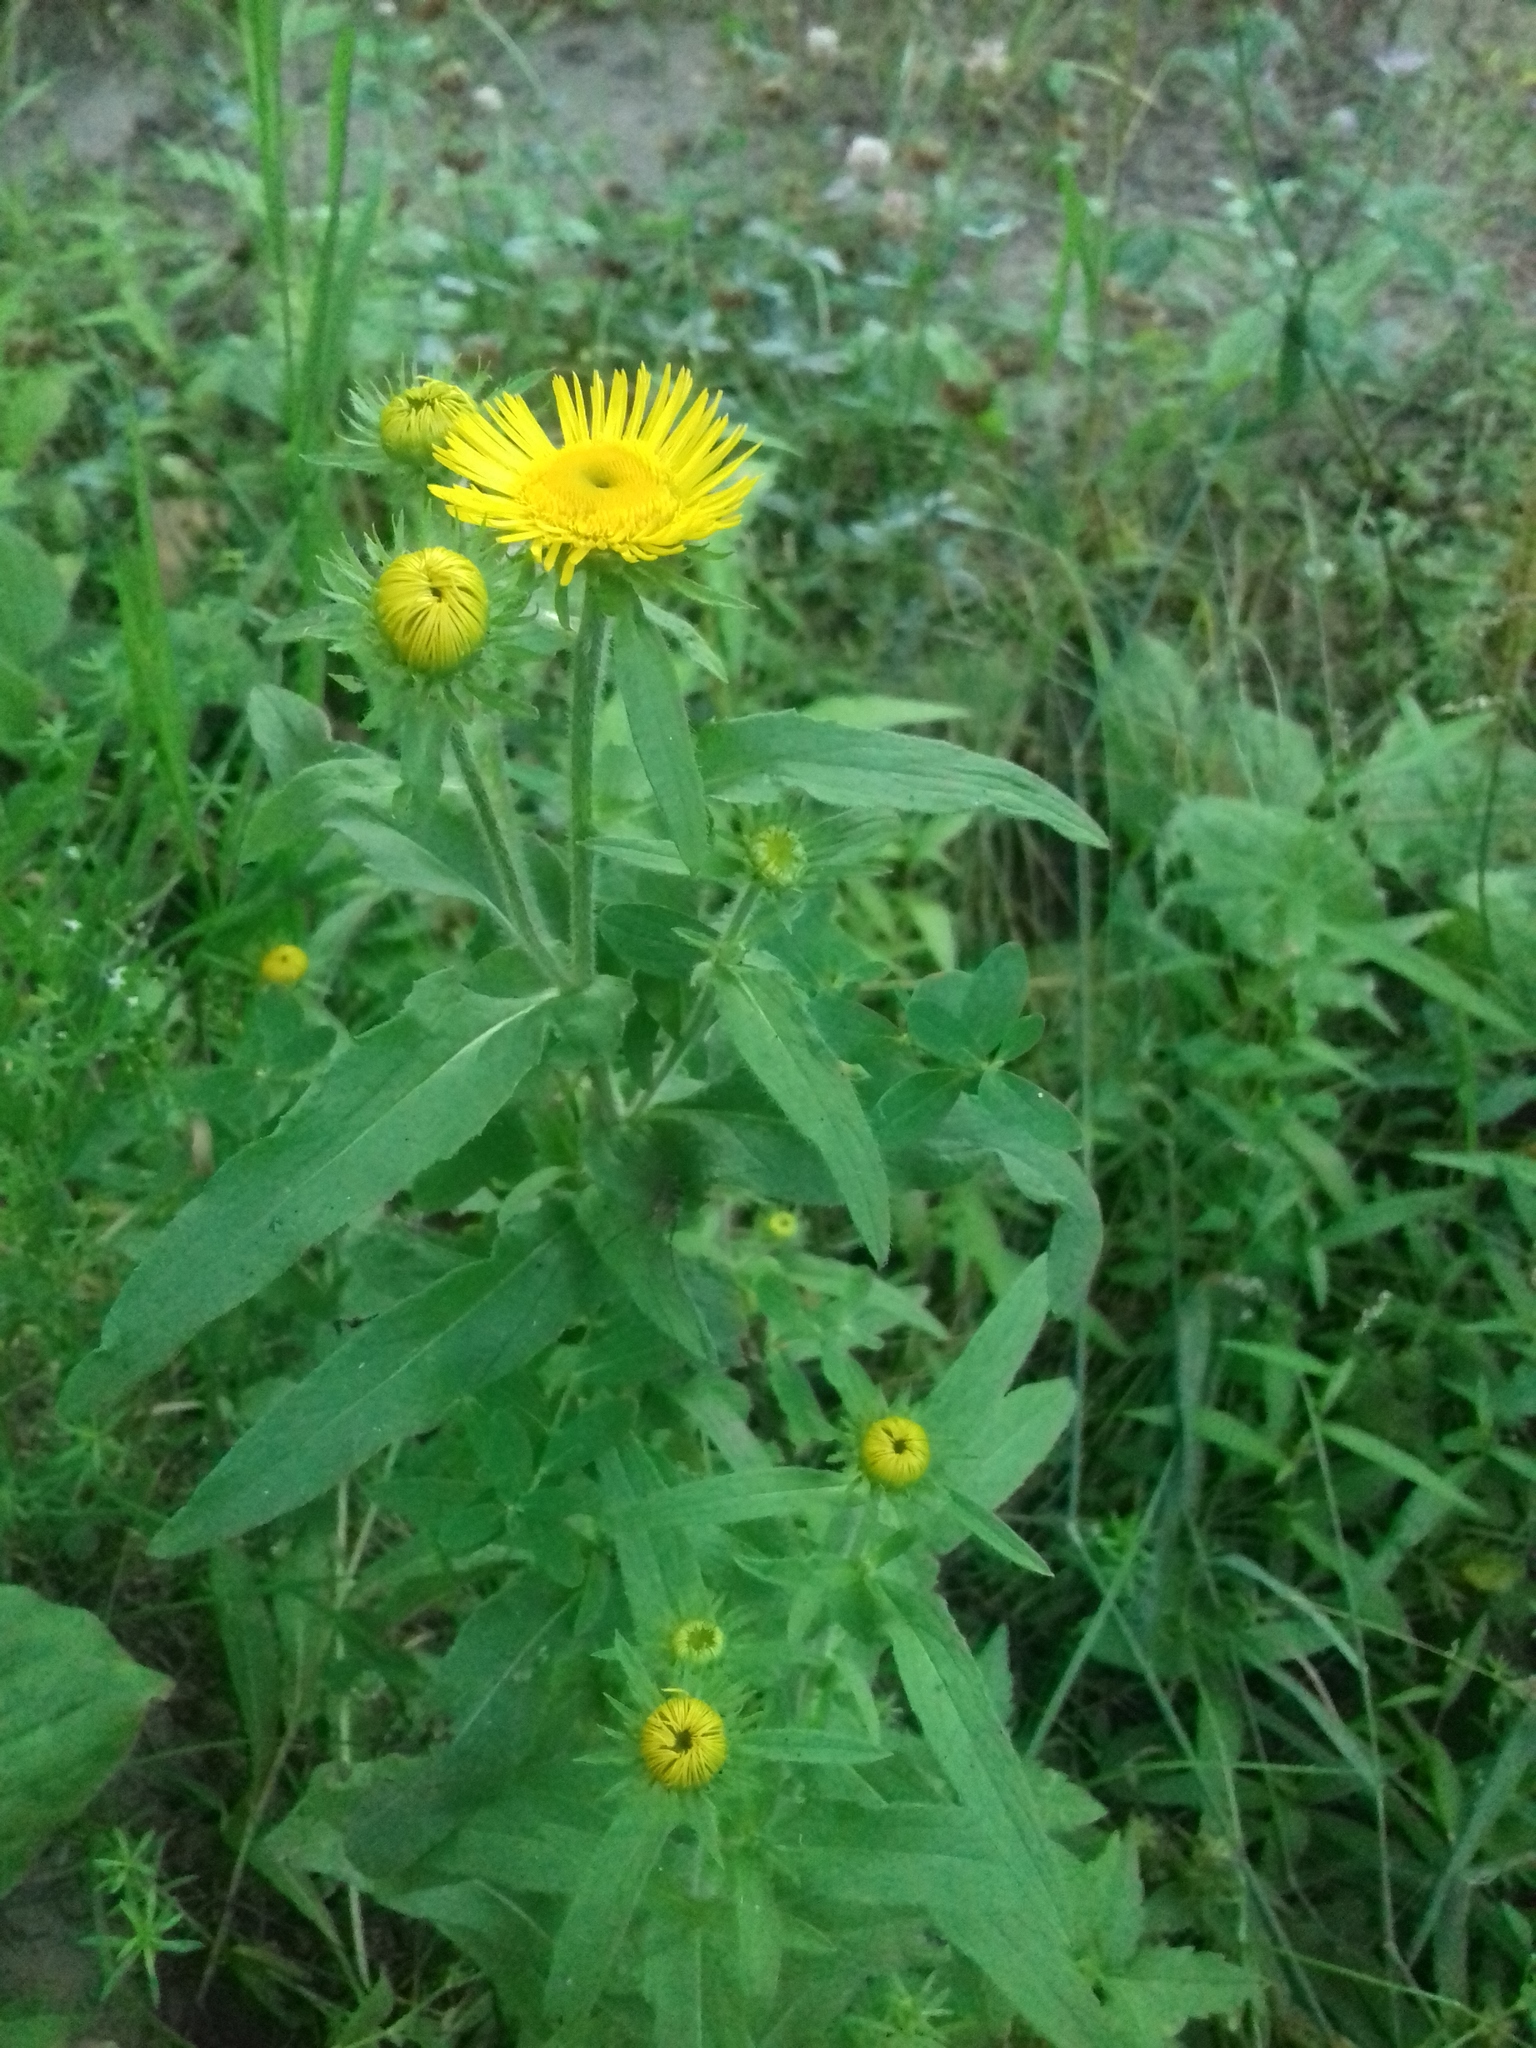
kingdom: Plantae
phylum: Tracheophyta
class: Magnoliopsida
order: Asterales
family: Asteraceae
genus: Pentanema
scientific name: Pentanema britannicum
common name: British elecampane
